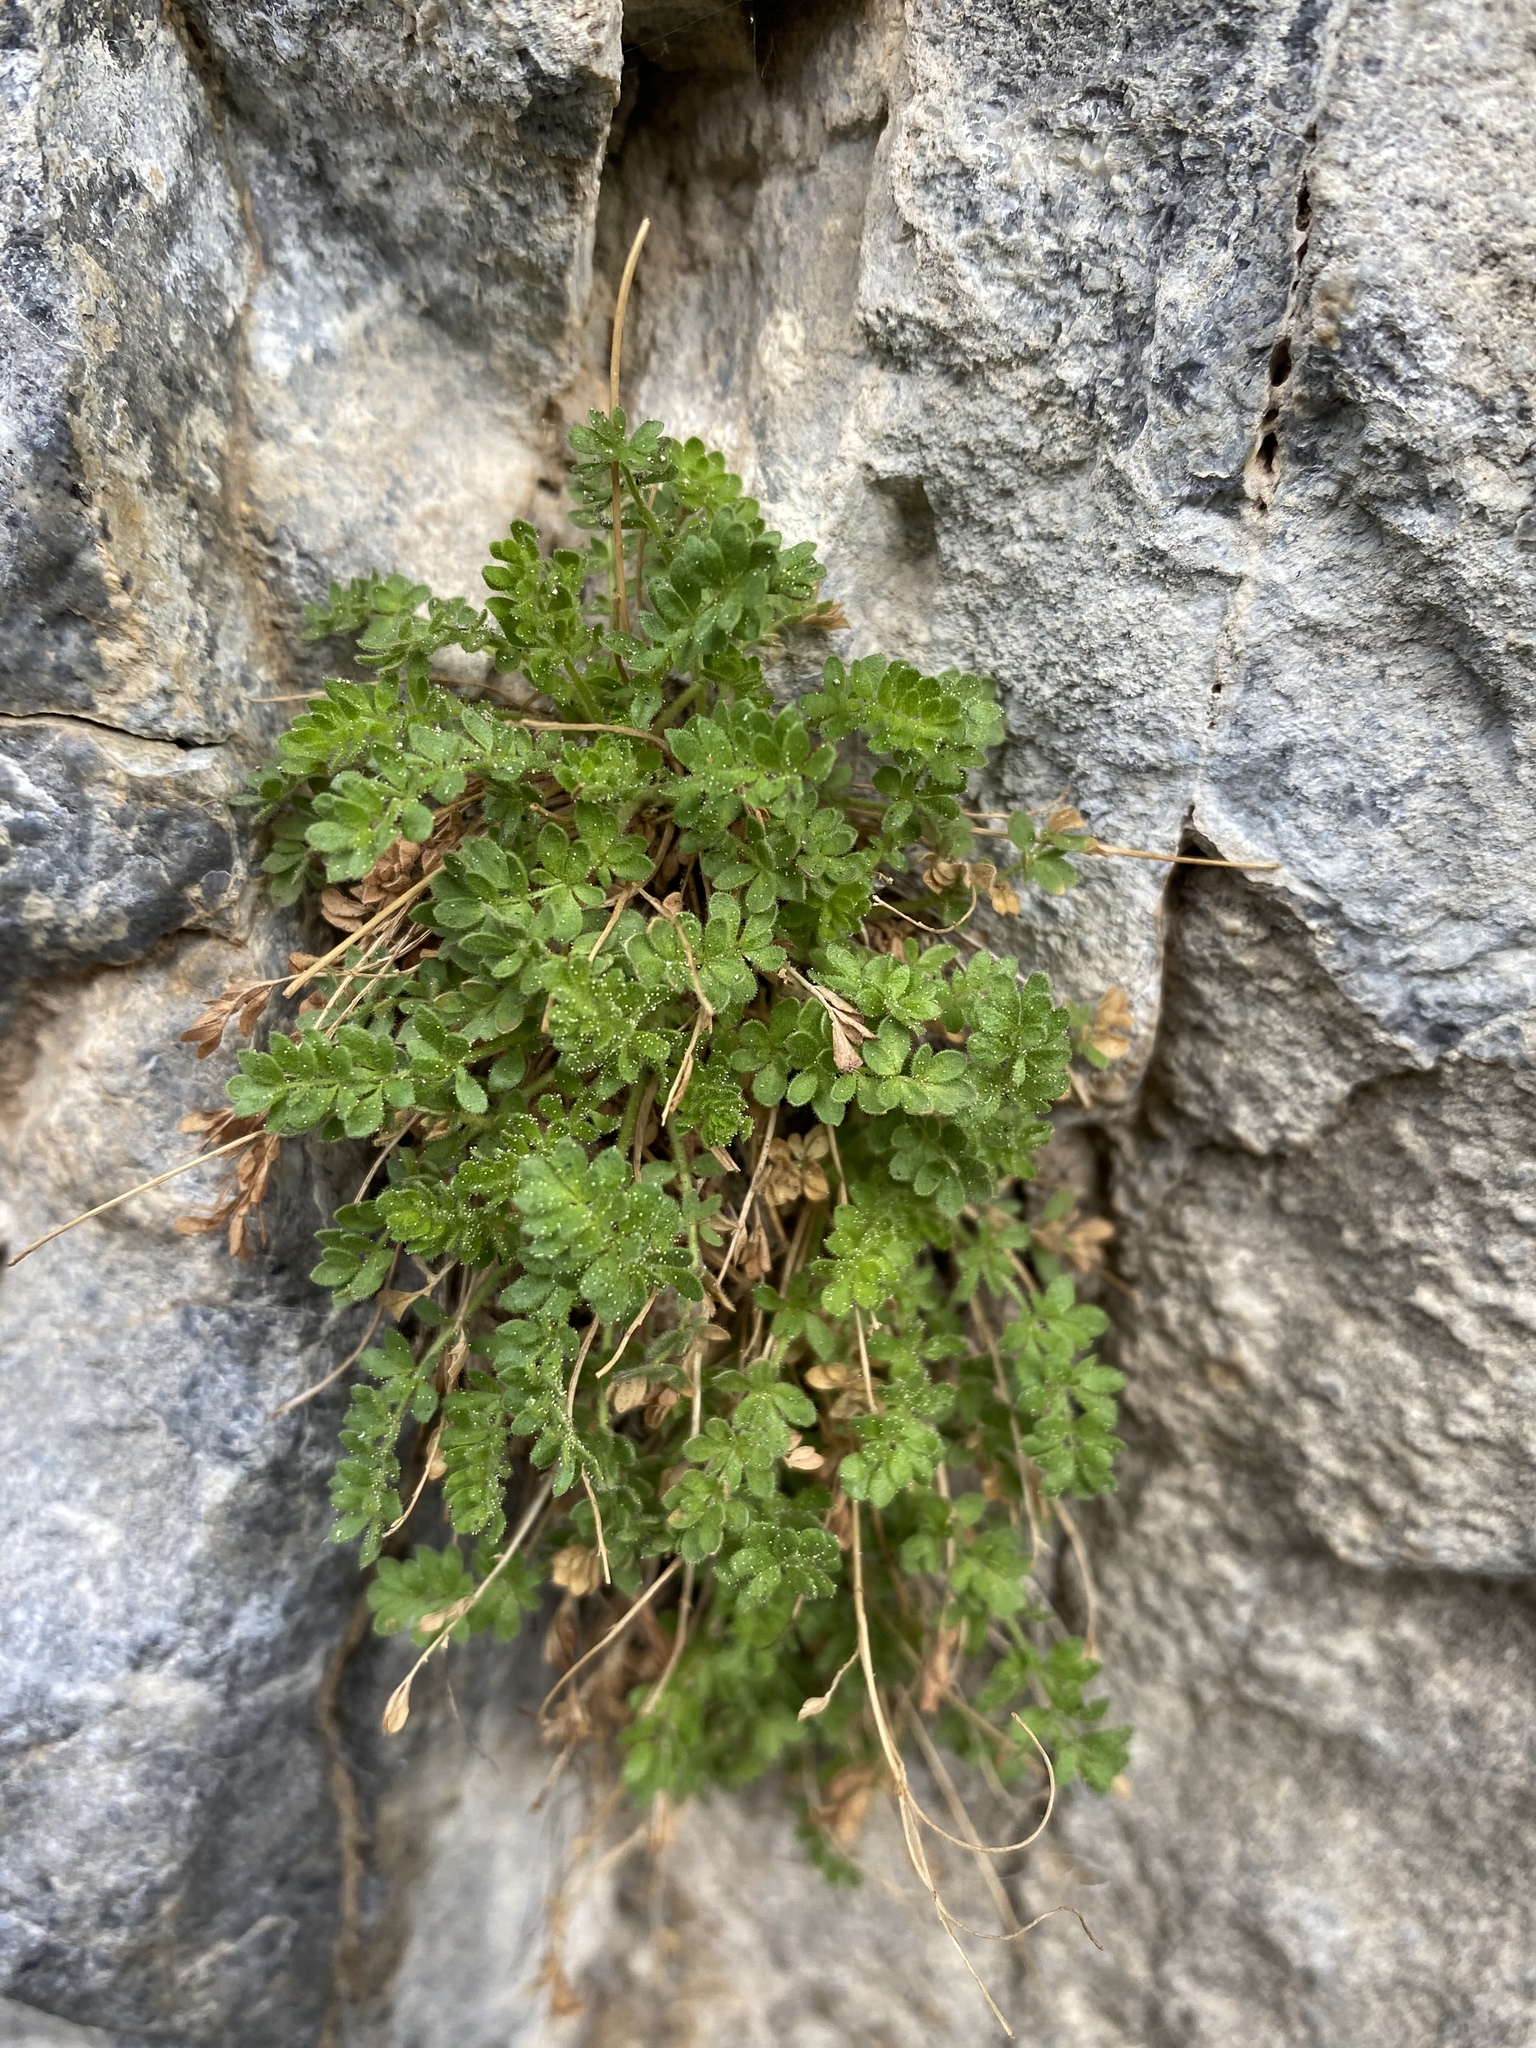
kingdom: Plantae
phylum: Tracheophyta
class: Magnoliopsida
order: Rosales
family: Rosaceae
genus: Potentilla
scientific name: Potentilla jaegeri
